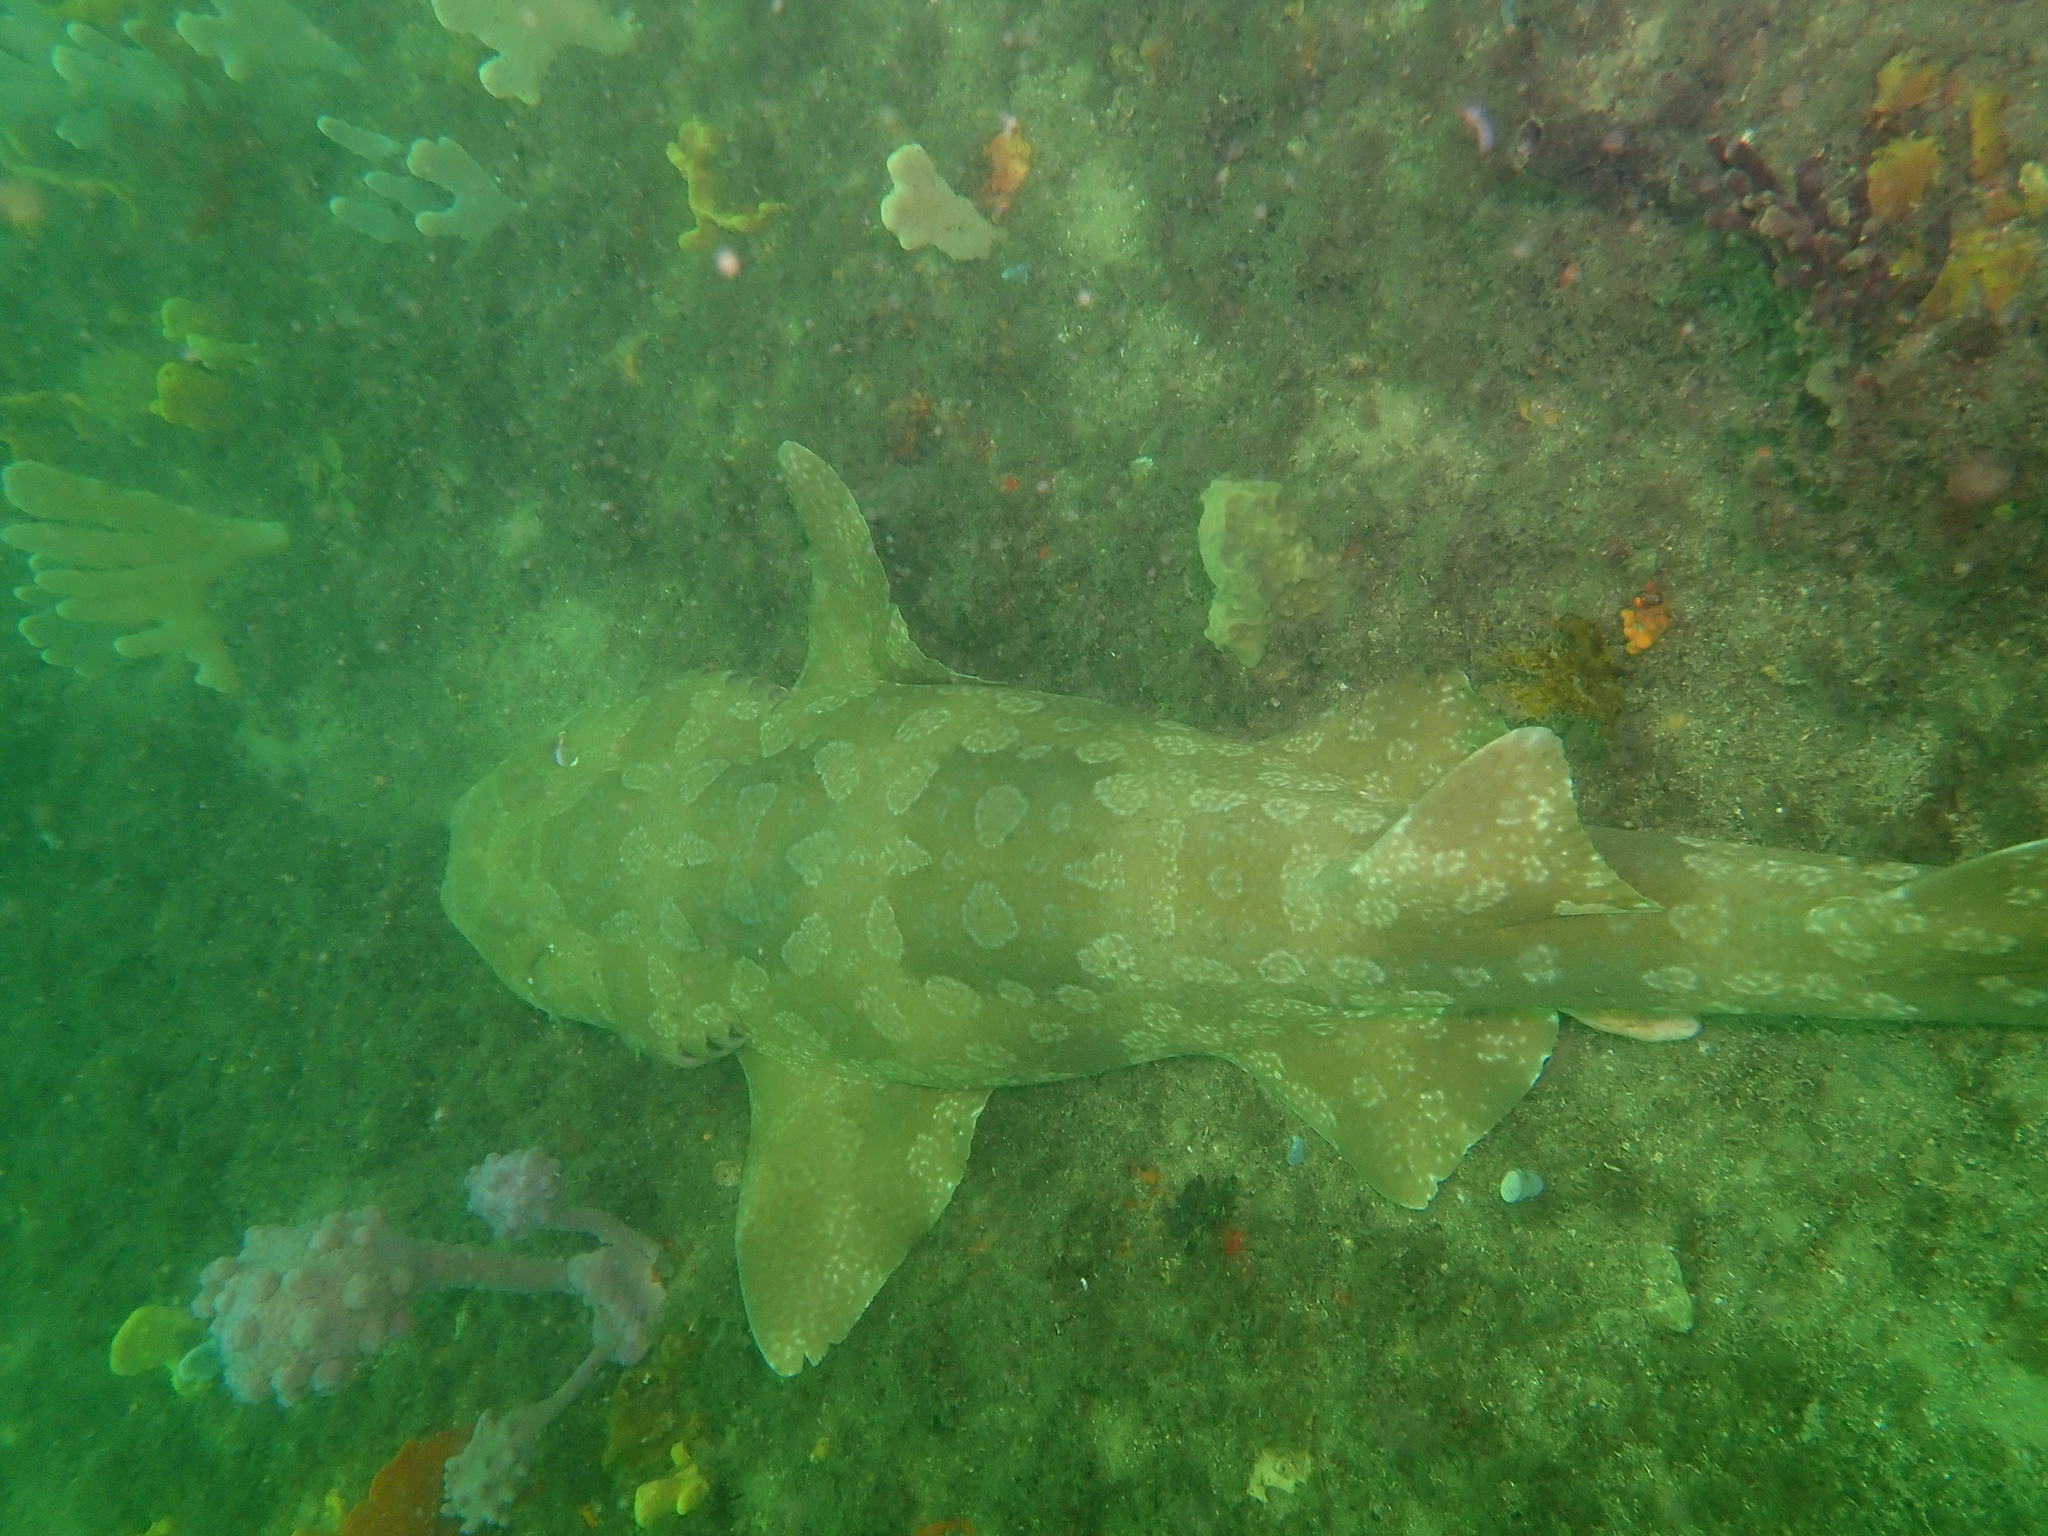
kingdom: Animalia
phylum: Chordata
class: Elasmobranchii
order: Orectolobiformes
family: Orectolobidae
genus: Orectolobus
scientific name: Orectolobus maculatus
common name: Spotted wobbegong
